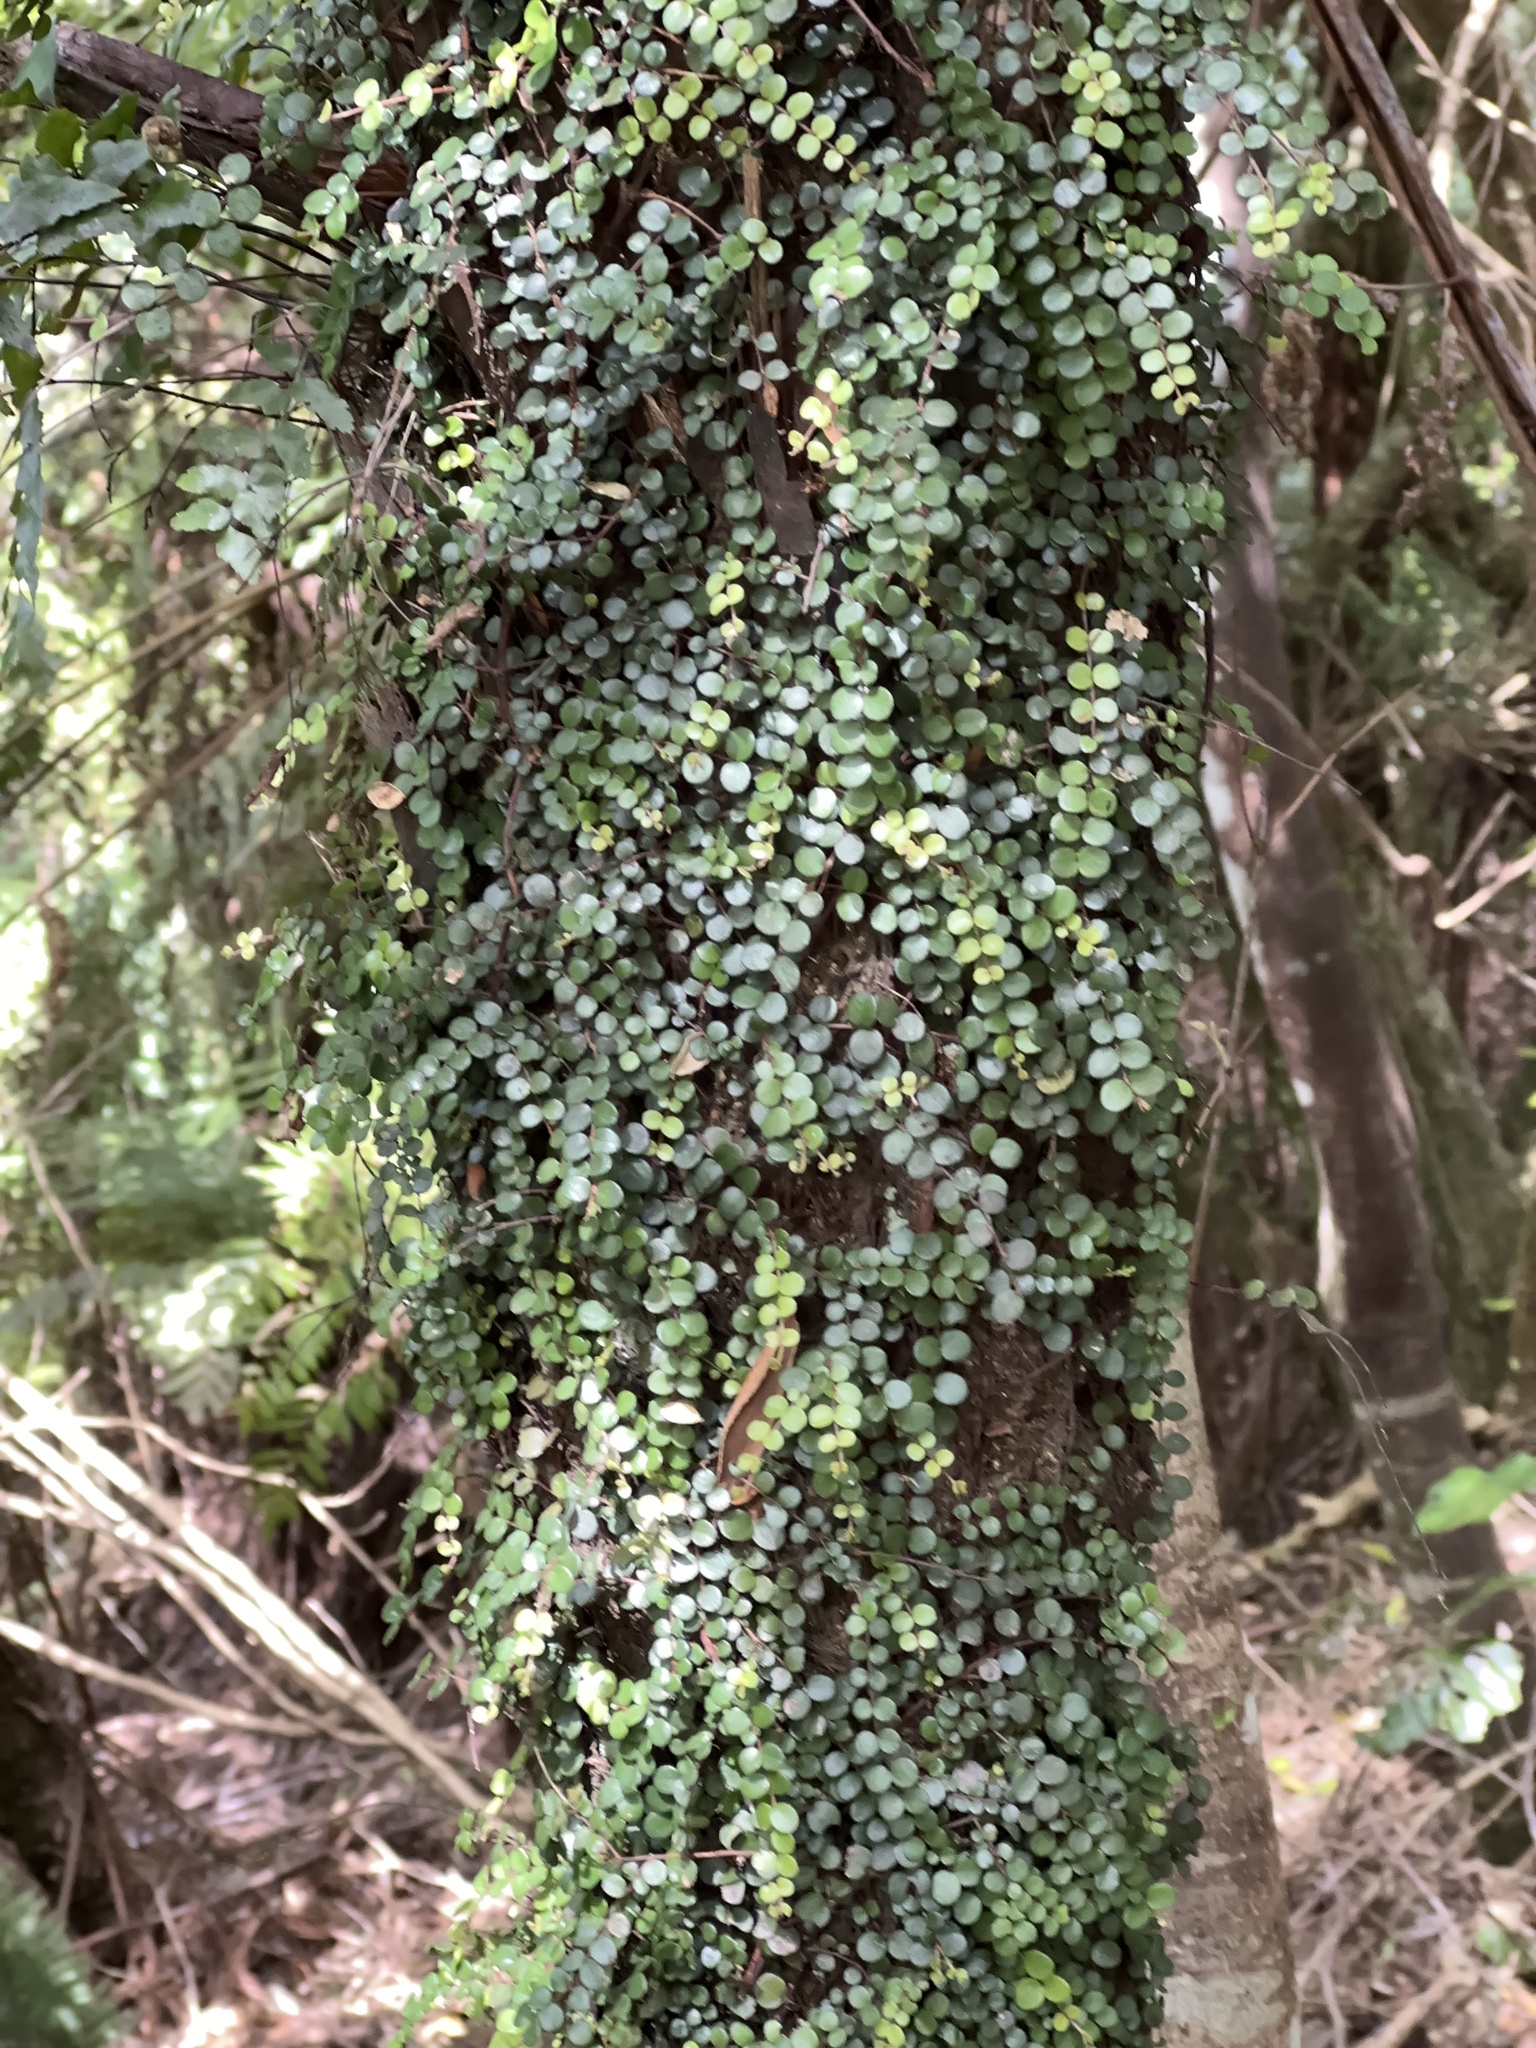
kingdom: Plantae
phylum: Tracheophyta
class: Magnoliopsida
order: Myrtales
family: Myrtaceae
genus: Metrosideros
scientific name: Metrosideros perforata
